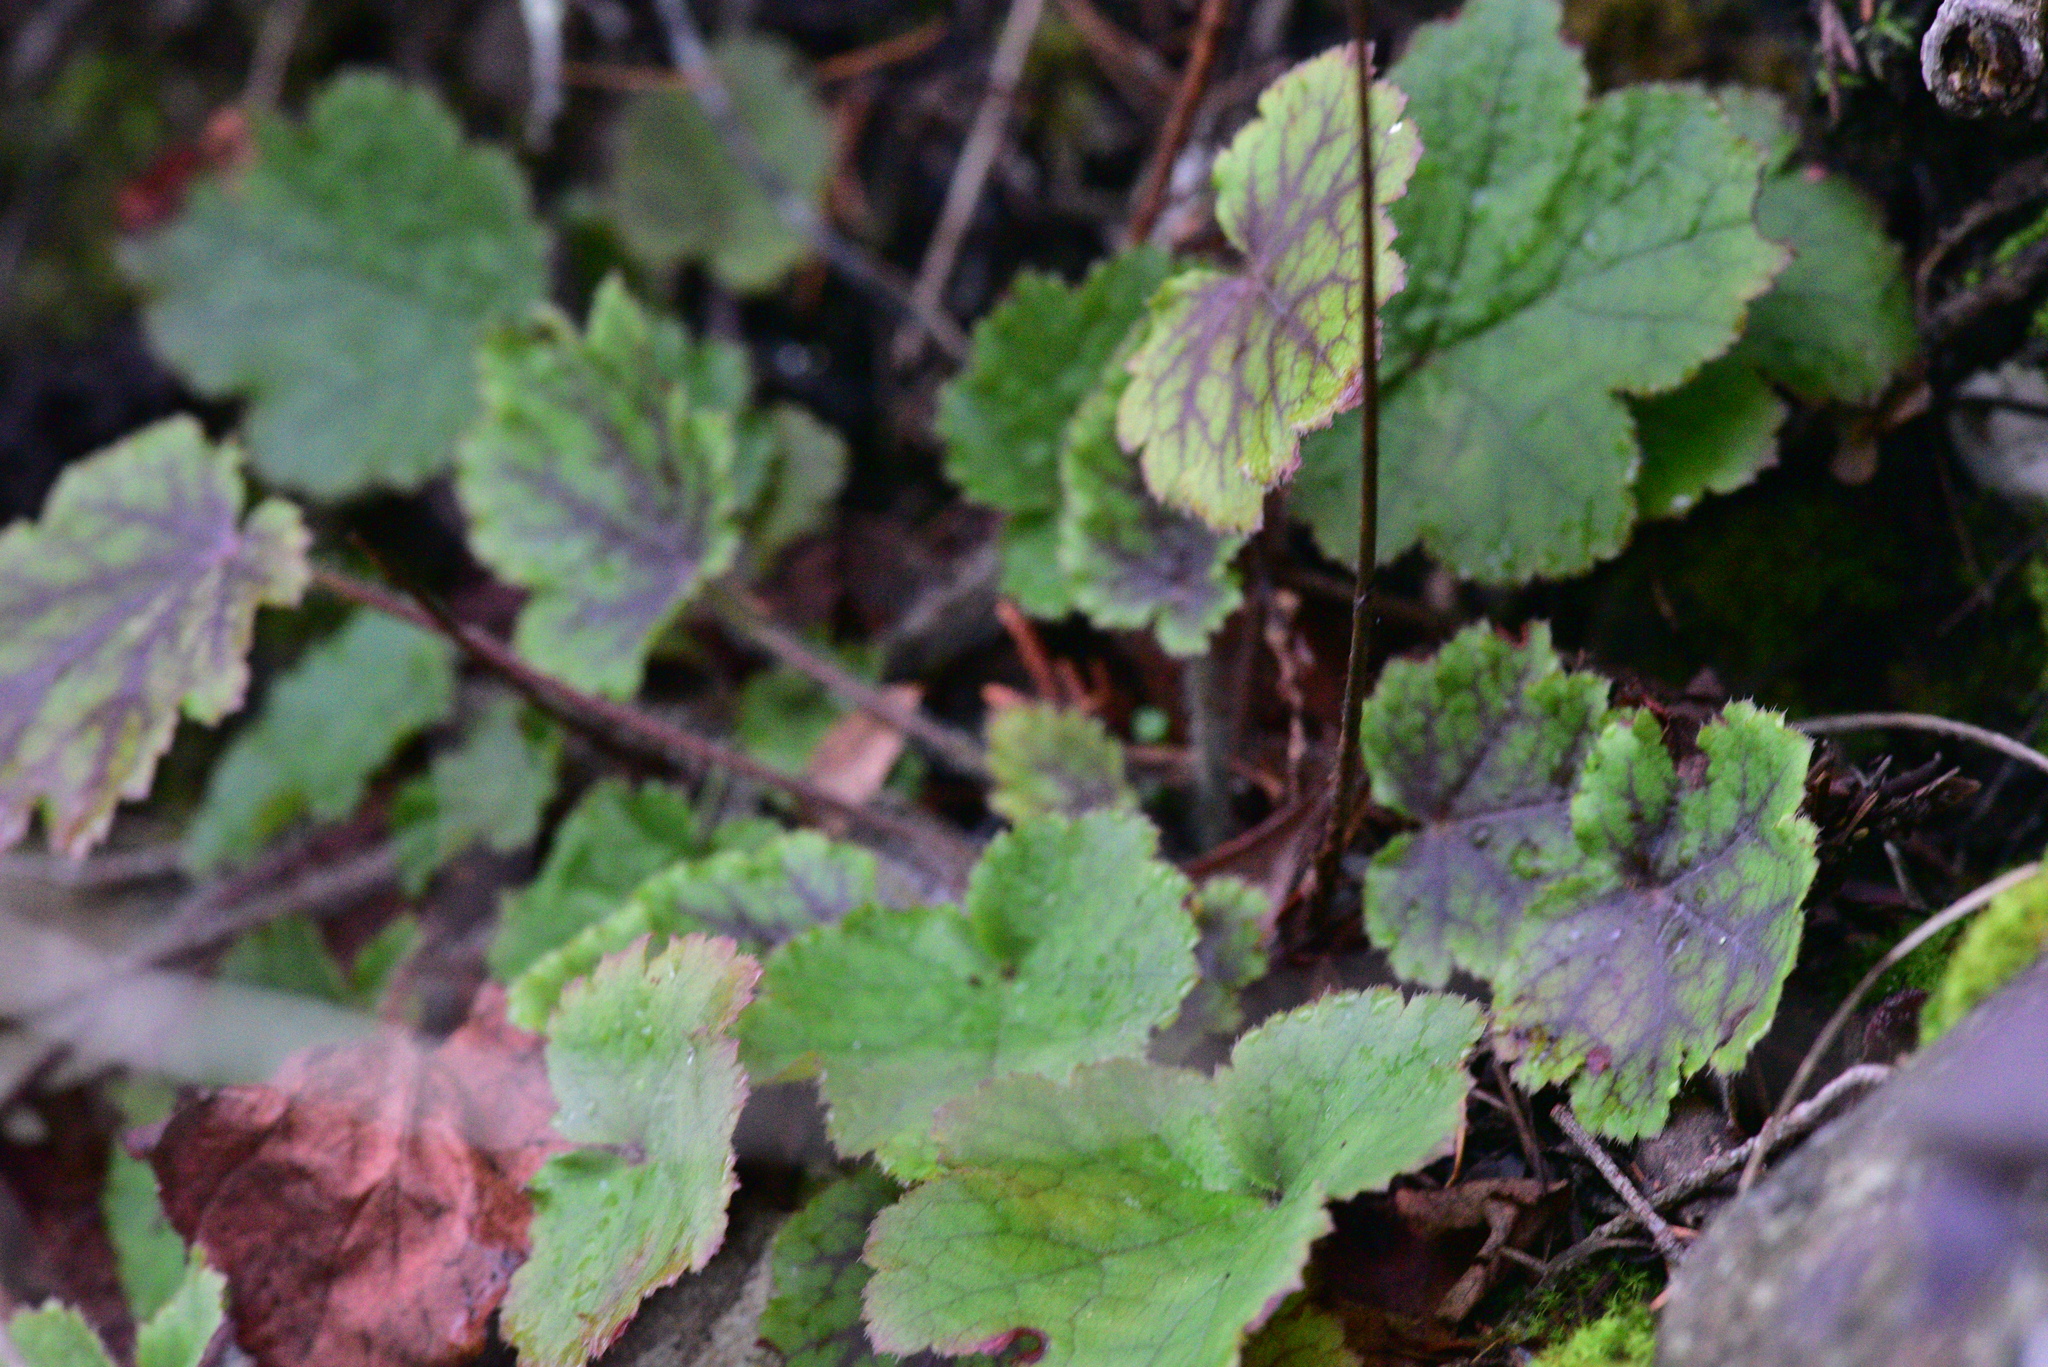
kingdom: Plantae
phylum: Tracheophyta
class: Magnoliopsida
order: Saxifragales
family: Saxifragaceae
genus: Heuchera
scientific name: Heuchera micrantha
